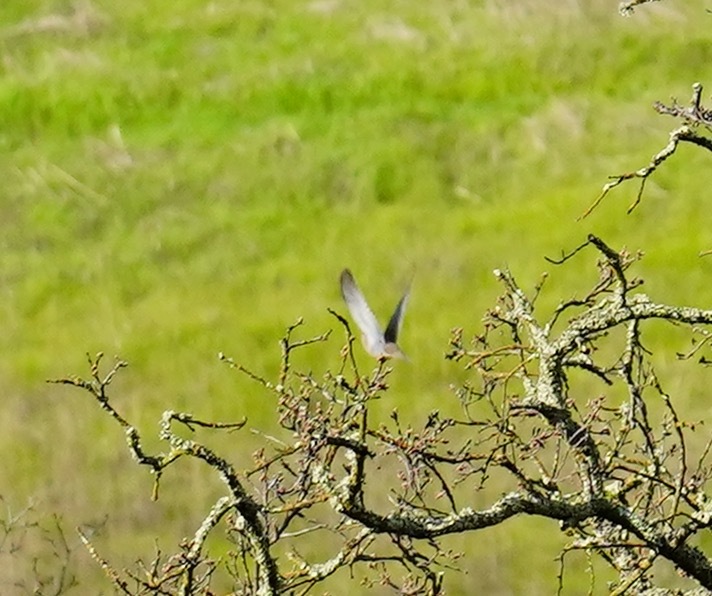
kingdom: Animalia
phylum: Chordata
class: Aves
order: Columbiformes
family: Columbidae
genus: Zenaida
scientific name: Zenaida macroura
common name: Mourning dove
